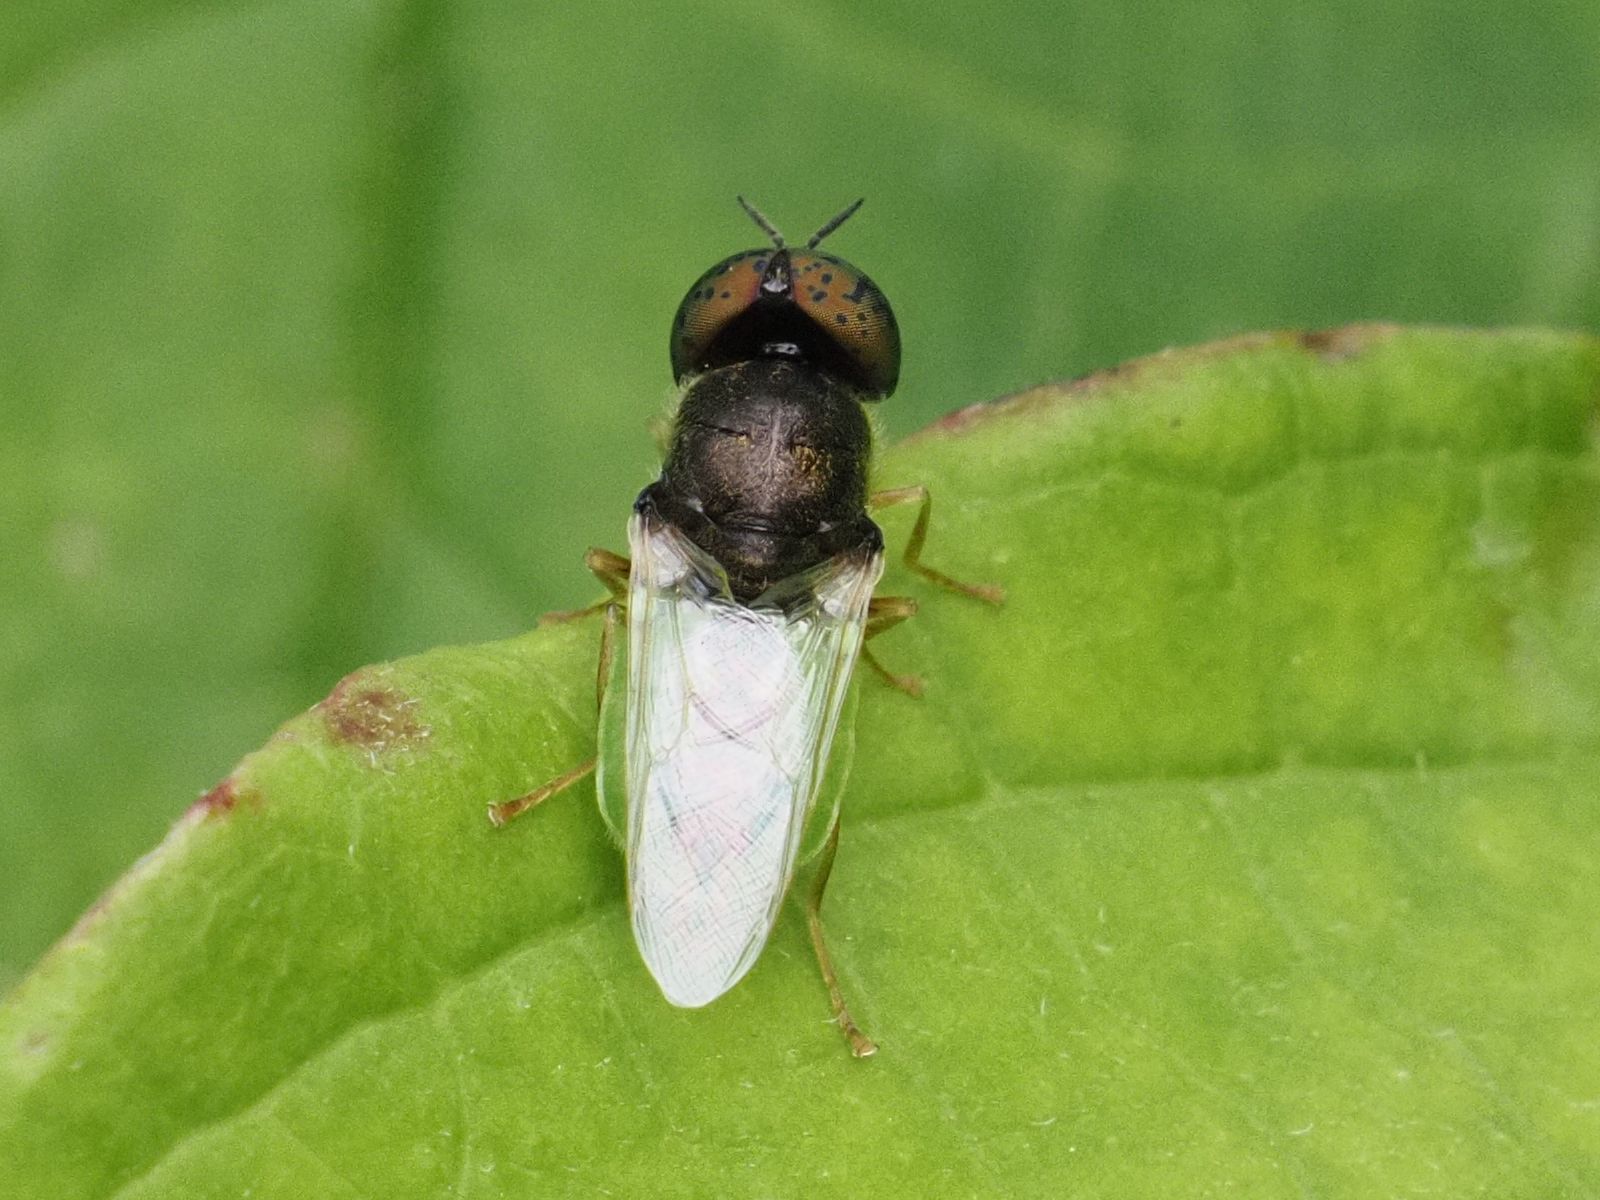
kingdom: Animalia
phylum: Arthropoda
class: Insecta
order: Diptera
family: Stratiomyidae
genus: Oplodontha
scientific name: Oplodontha viridula
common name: Common green colonel
